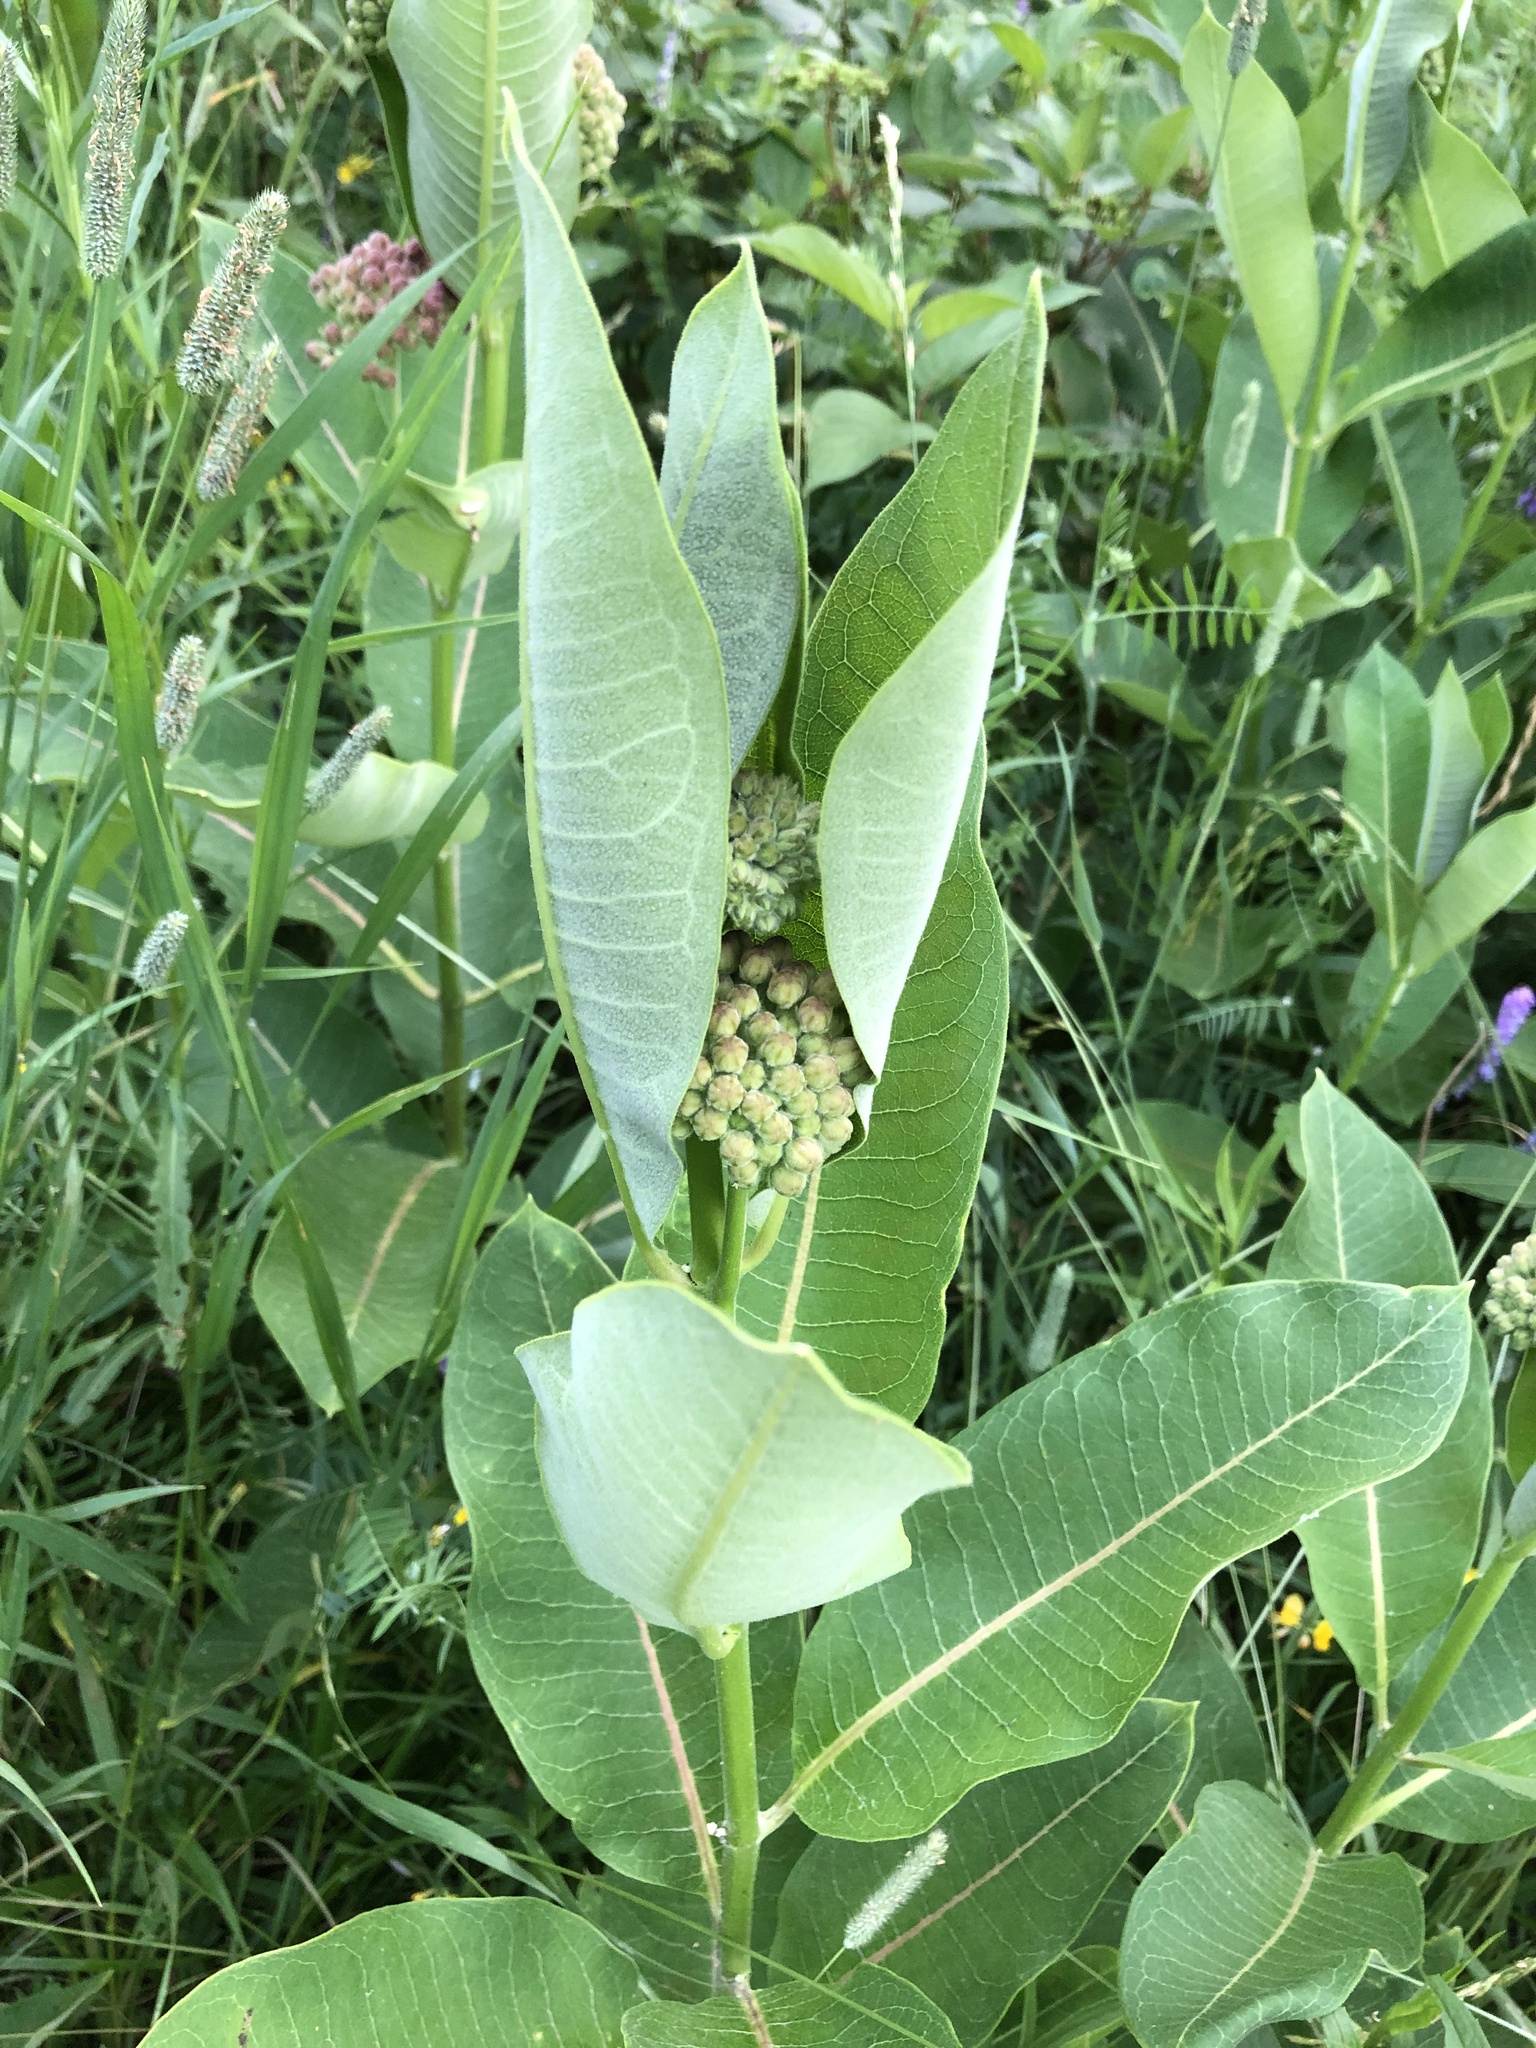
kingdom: Plantae
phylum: Tracheophyta
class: Magnoliopsida
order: Gentianales
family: Apocynaceae
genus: Asclepias
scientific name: Asclepias syriaca
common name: Common milkweed
